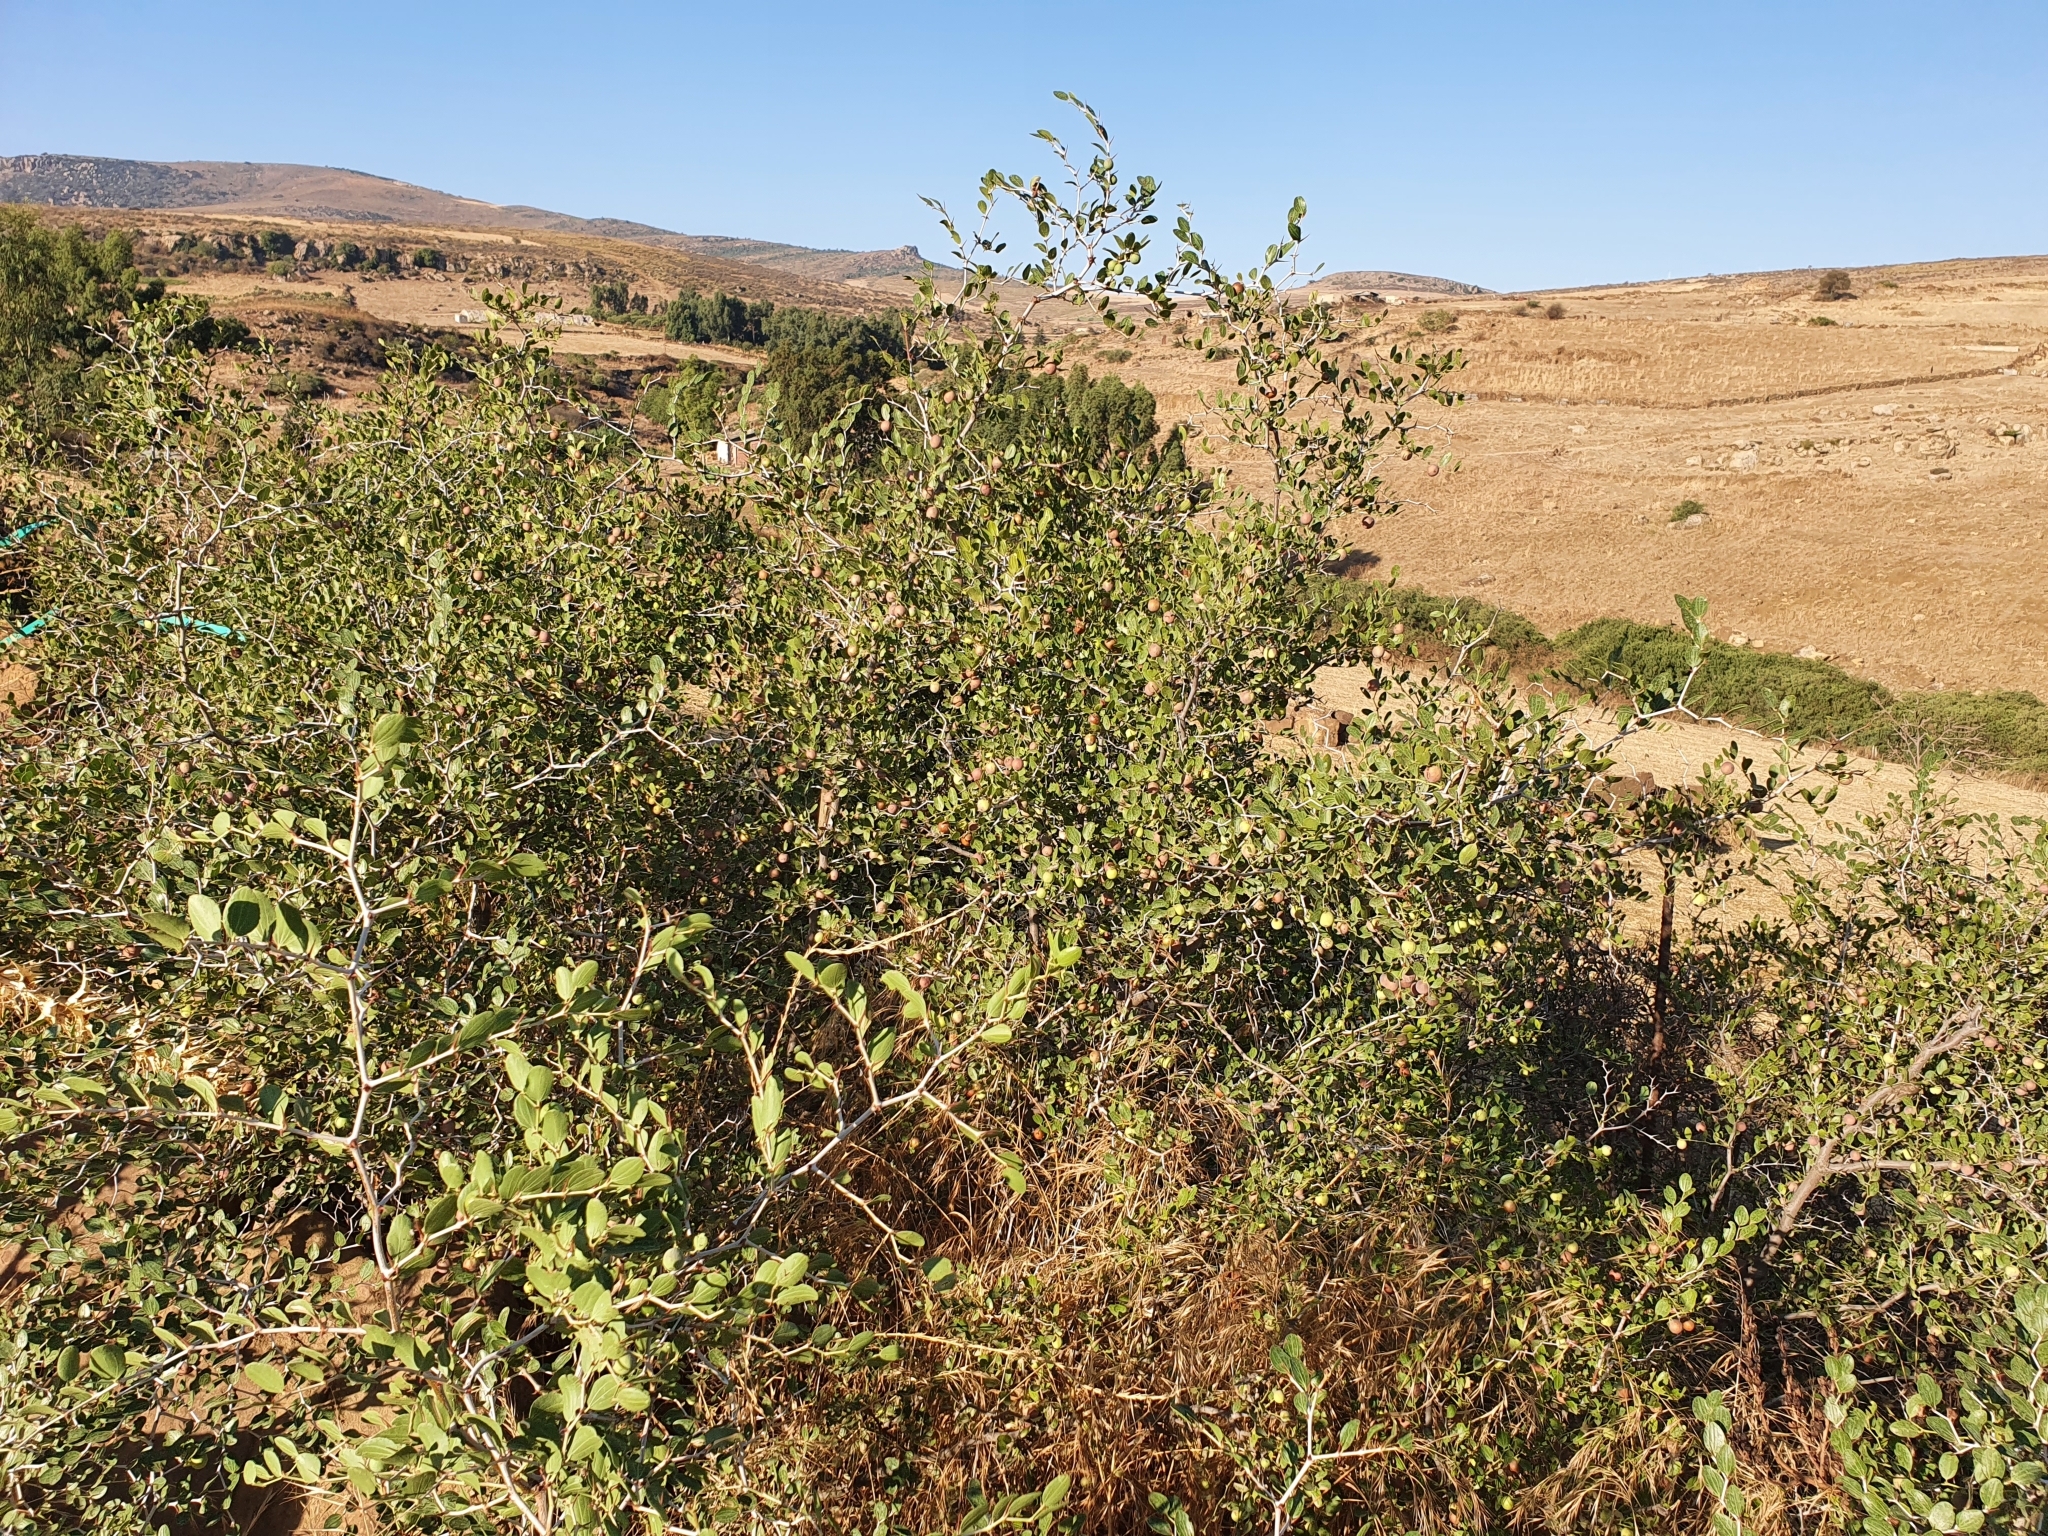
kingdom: Plantae
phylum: Tracheophyta
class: Magnoliopsida
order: Rosales
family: Rhamnaceae
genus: Ziziphus
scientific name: Ziziphus lotus
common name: Lotus
